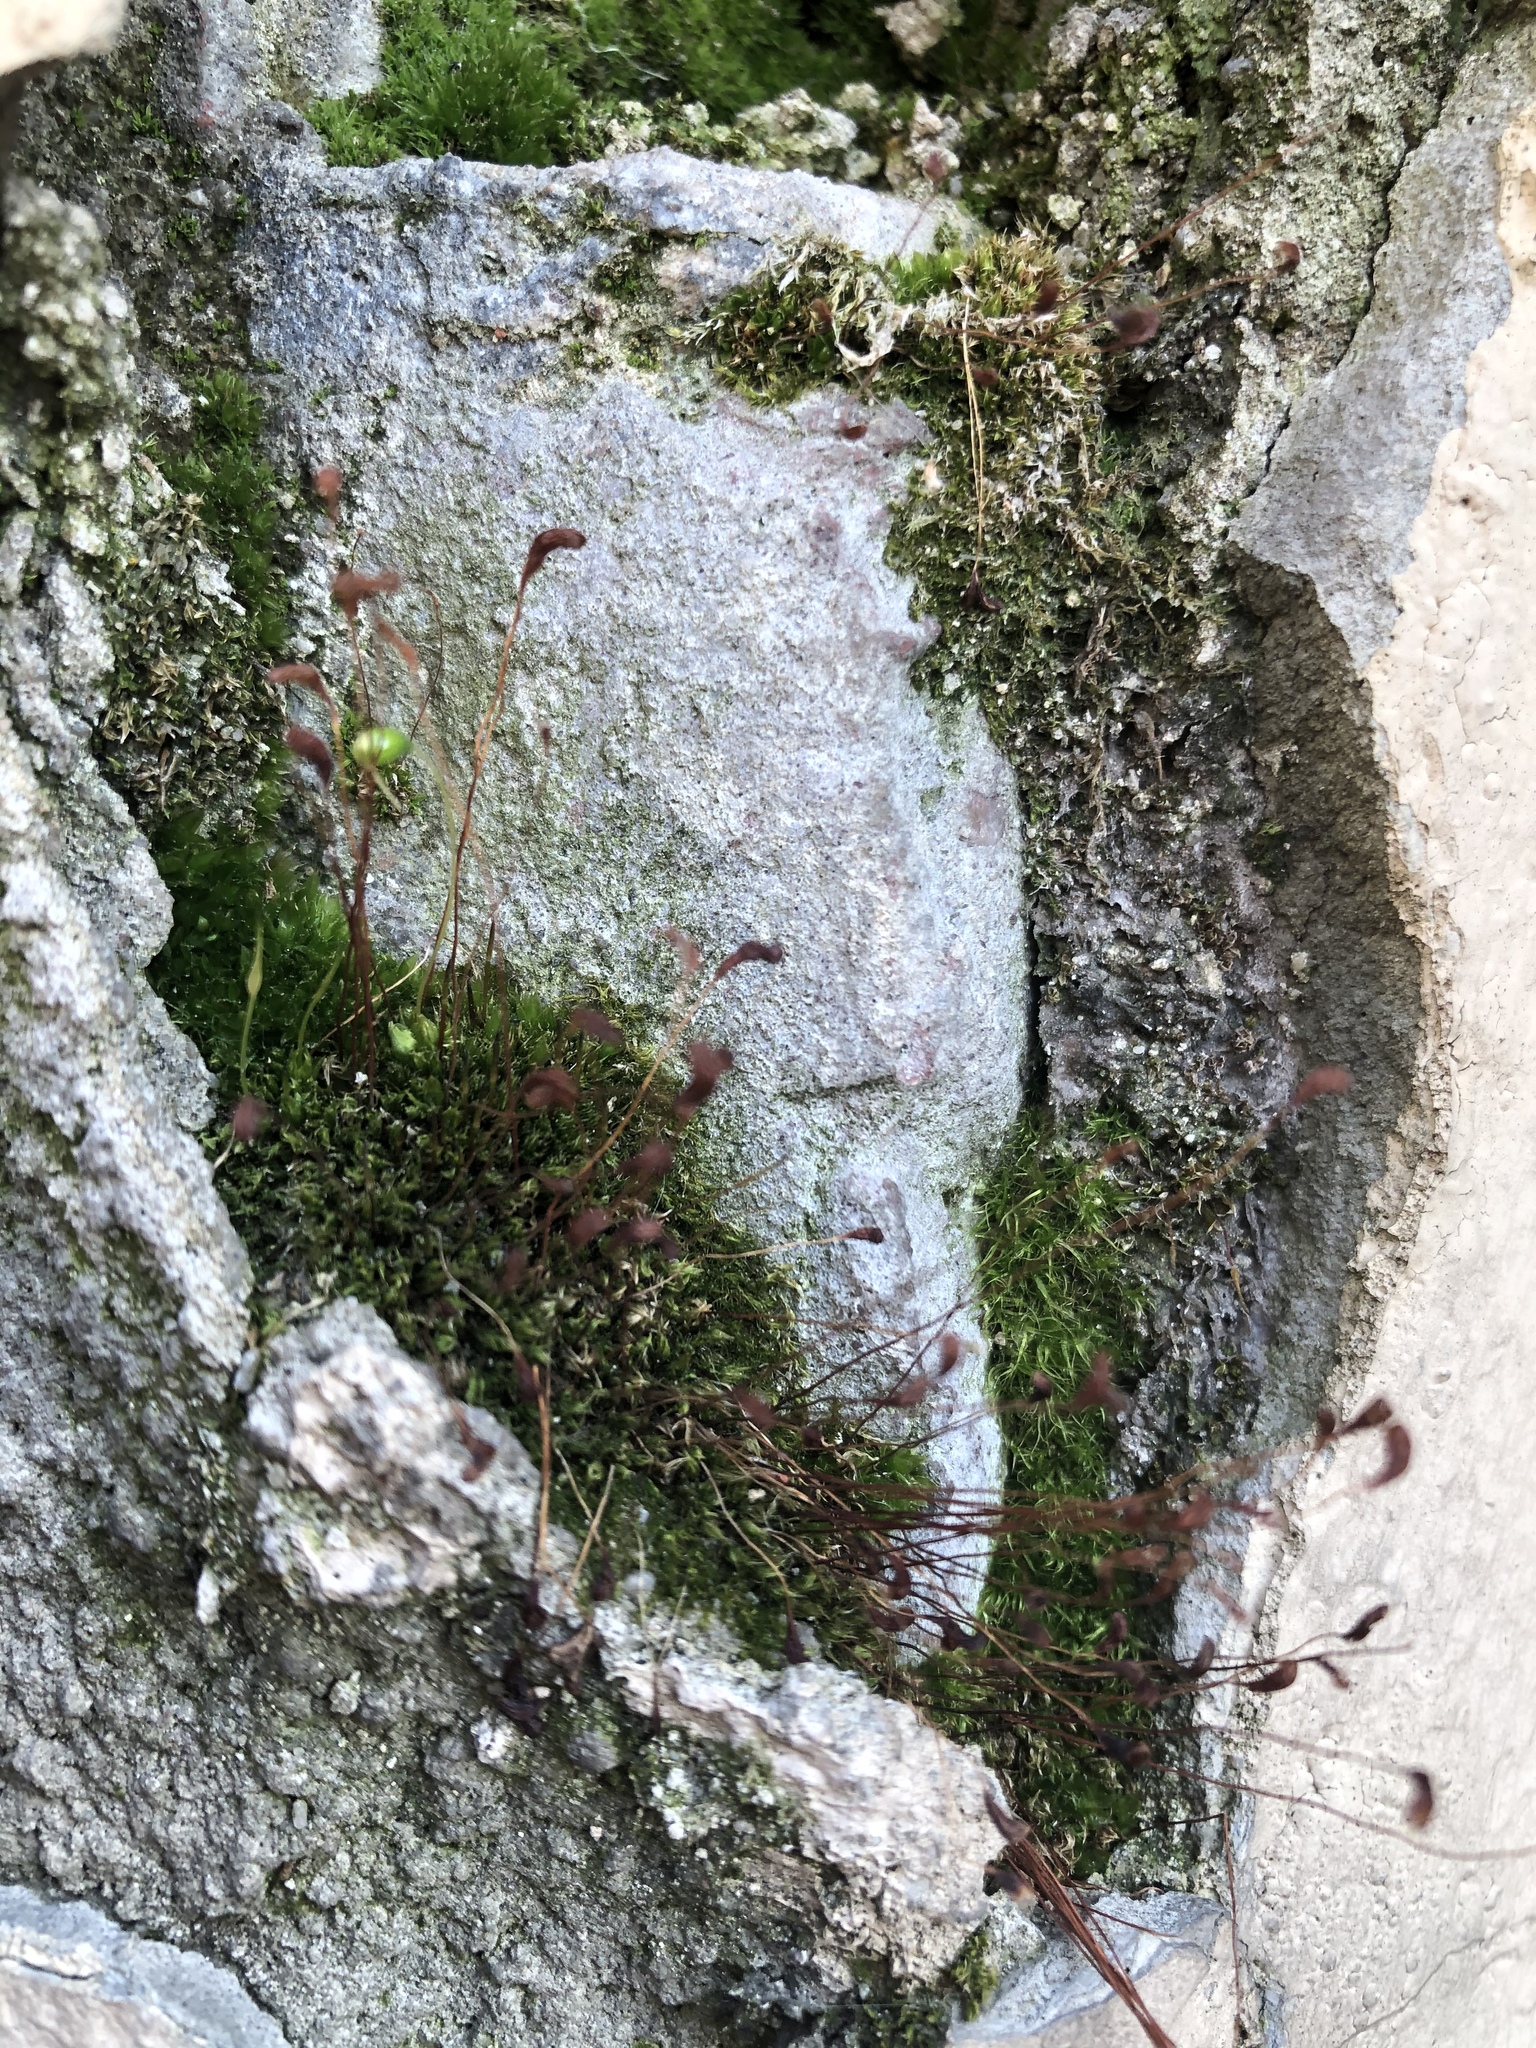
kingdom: Plantae
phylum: Bryophyta
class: Bryopsida
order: Funariales
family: Funariaceae
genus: Funaria
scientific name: Funaria hygrometrica
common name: Common cord moss
